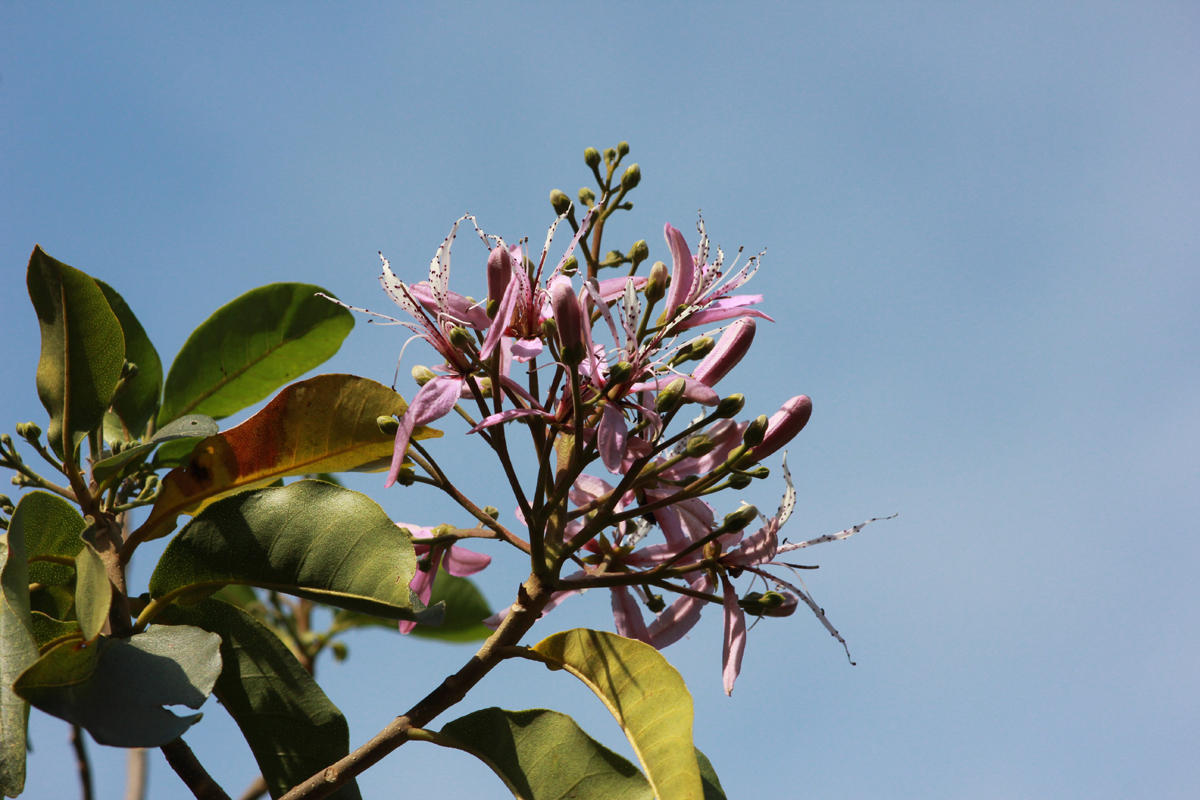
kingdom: Plantae
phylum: Tracheophyta
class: Magnoliopsida
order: Sapindales
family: Rutaceae
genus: Calodendrum
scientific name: Calodendrum capense
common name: Cape chestnut
